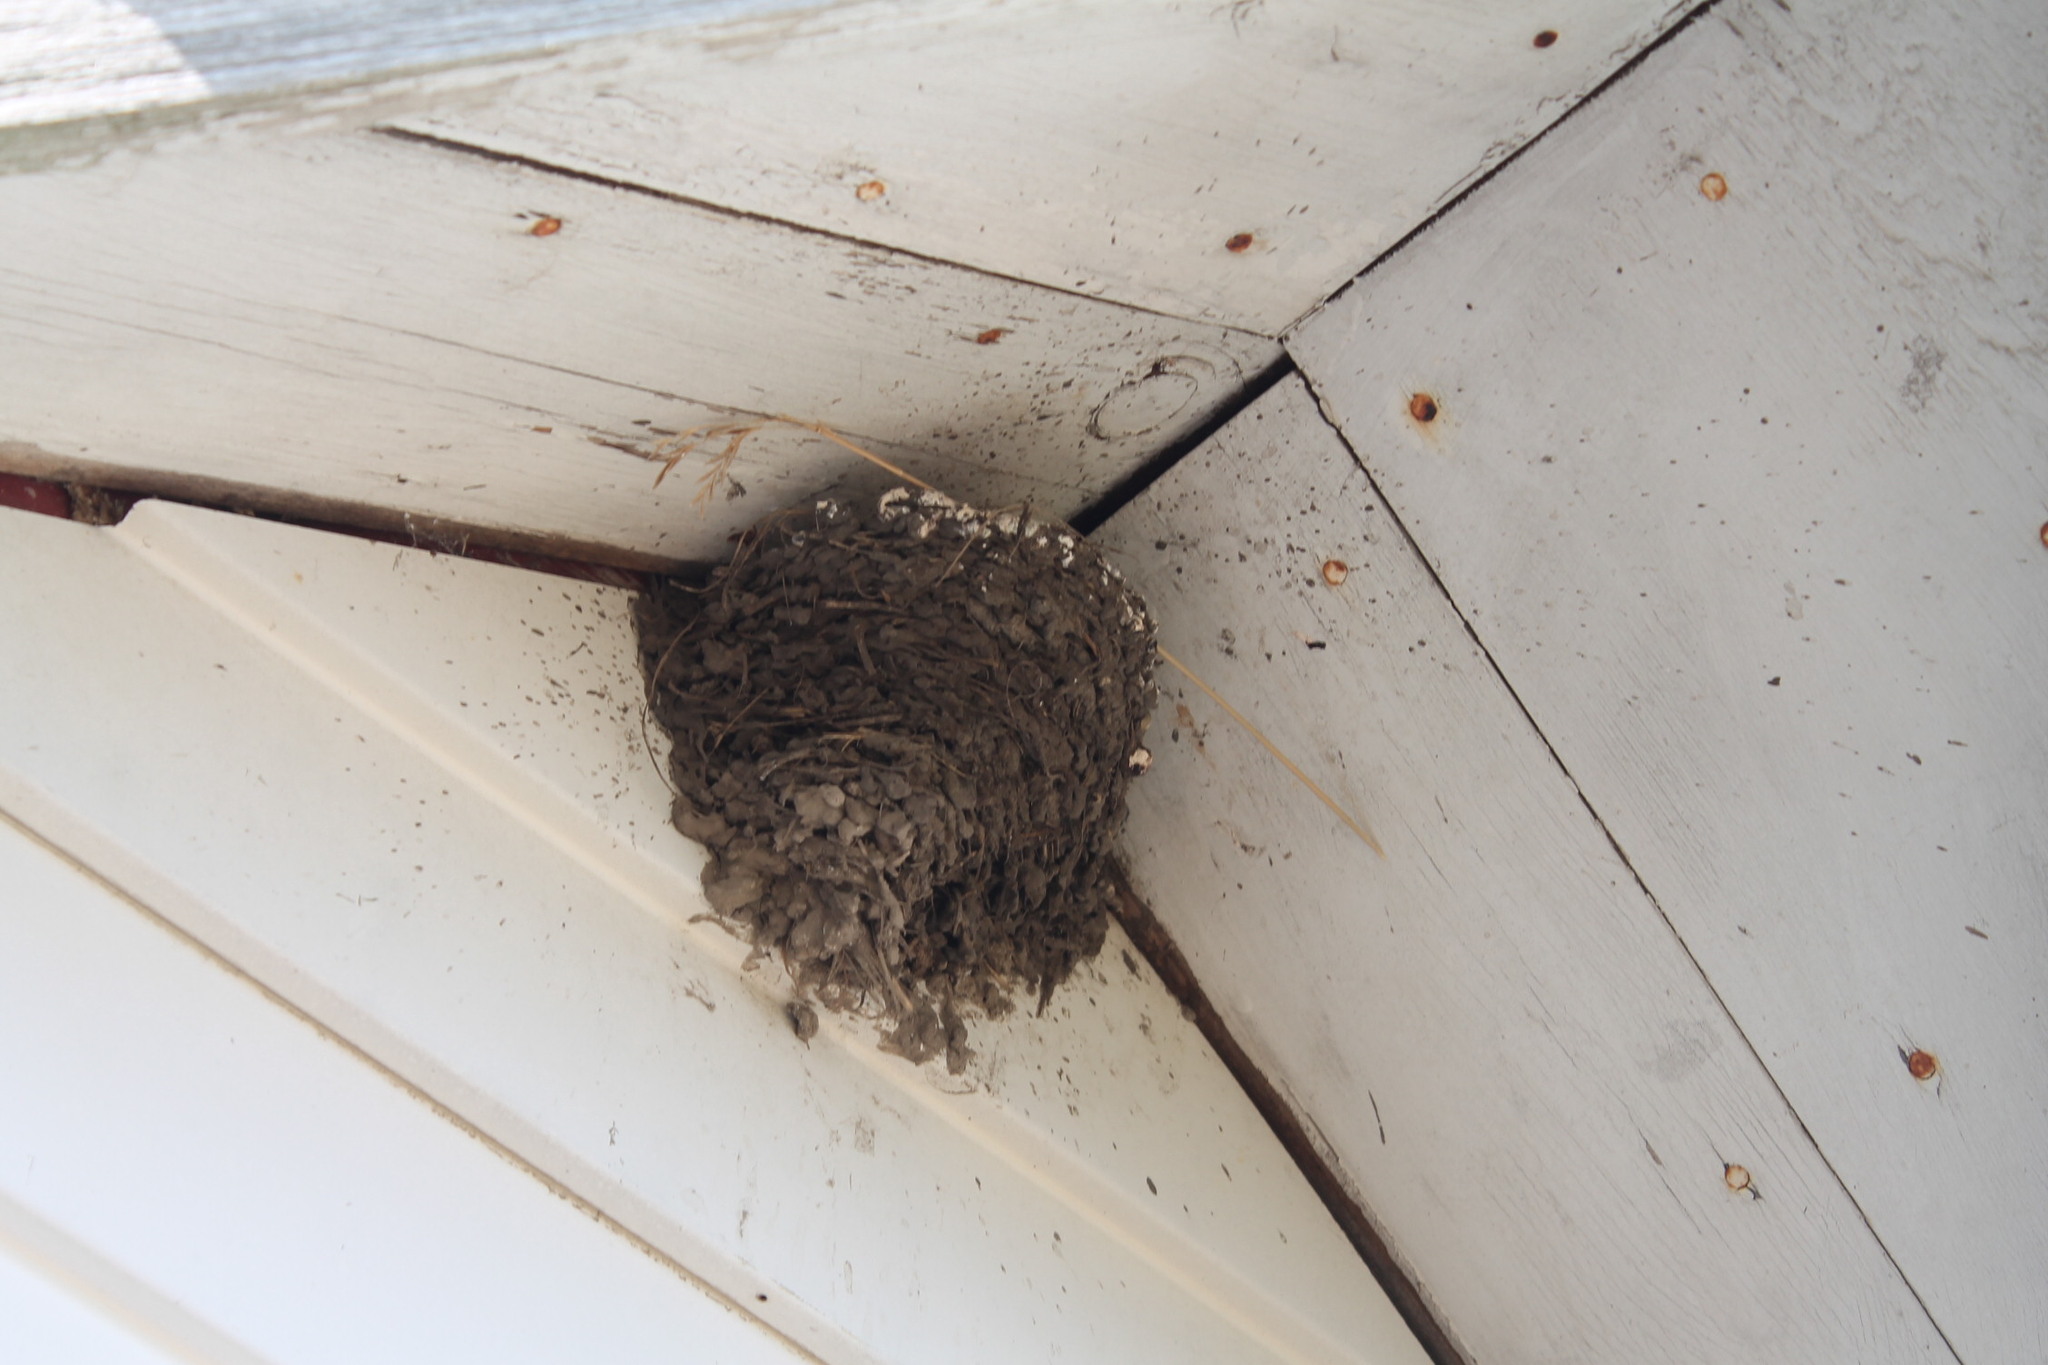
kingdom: Animalia
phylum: Chordata
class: Aves
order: Passeriformes
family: Hirundinidae
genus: Hirundo
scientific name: Hirundo rustica
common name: Barn swallow
